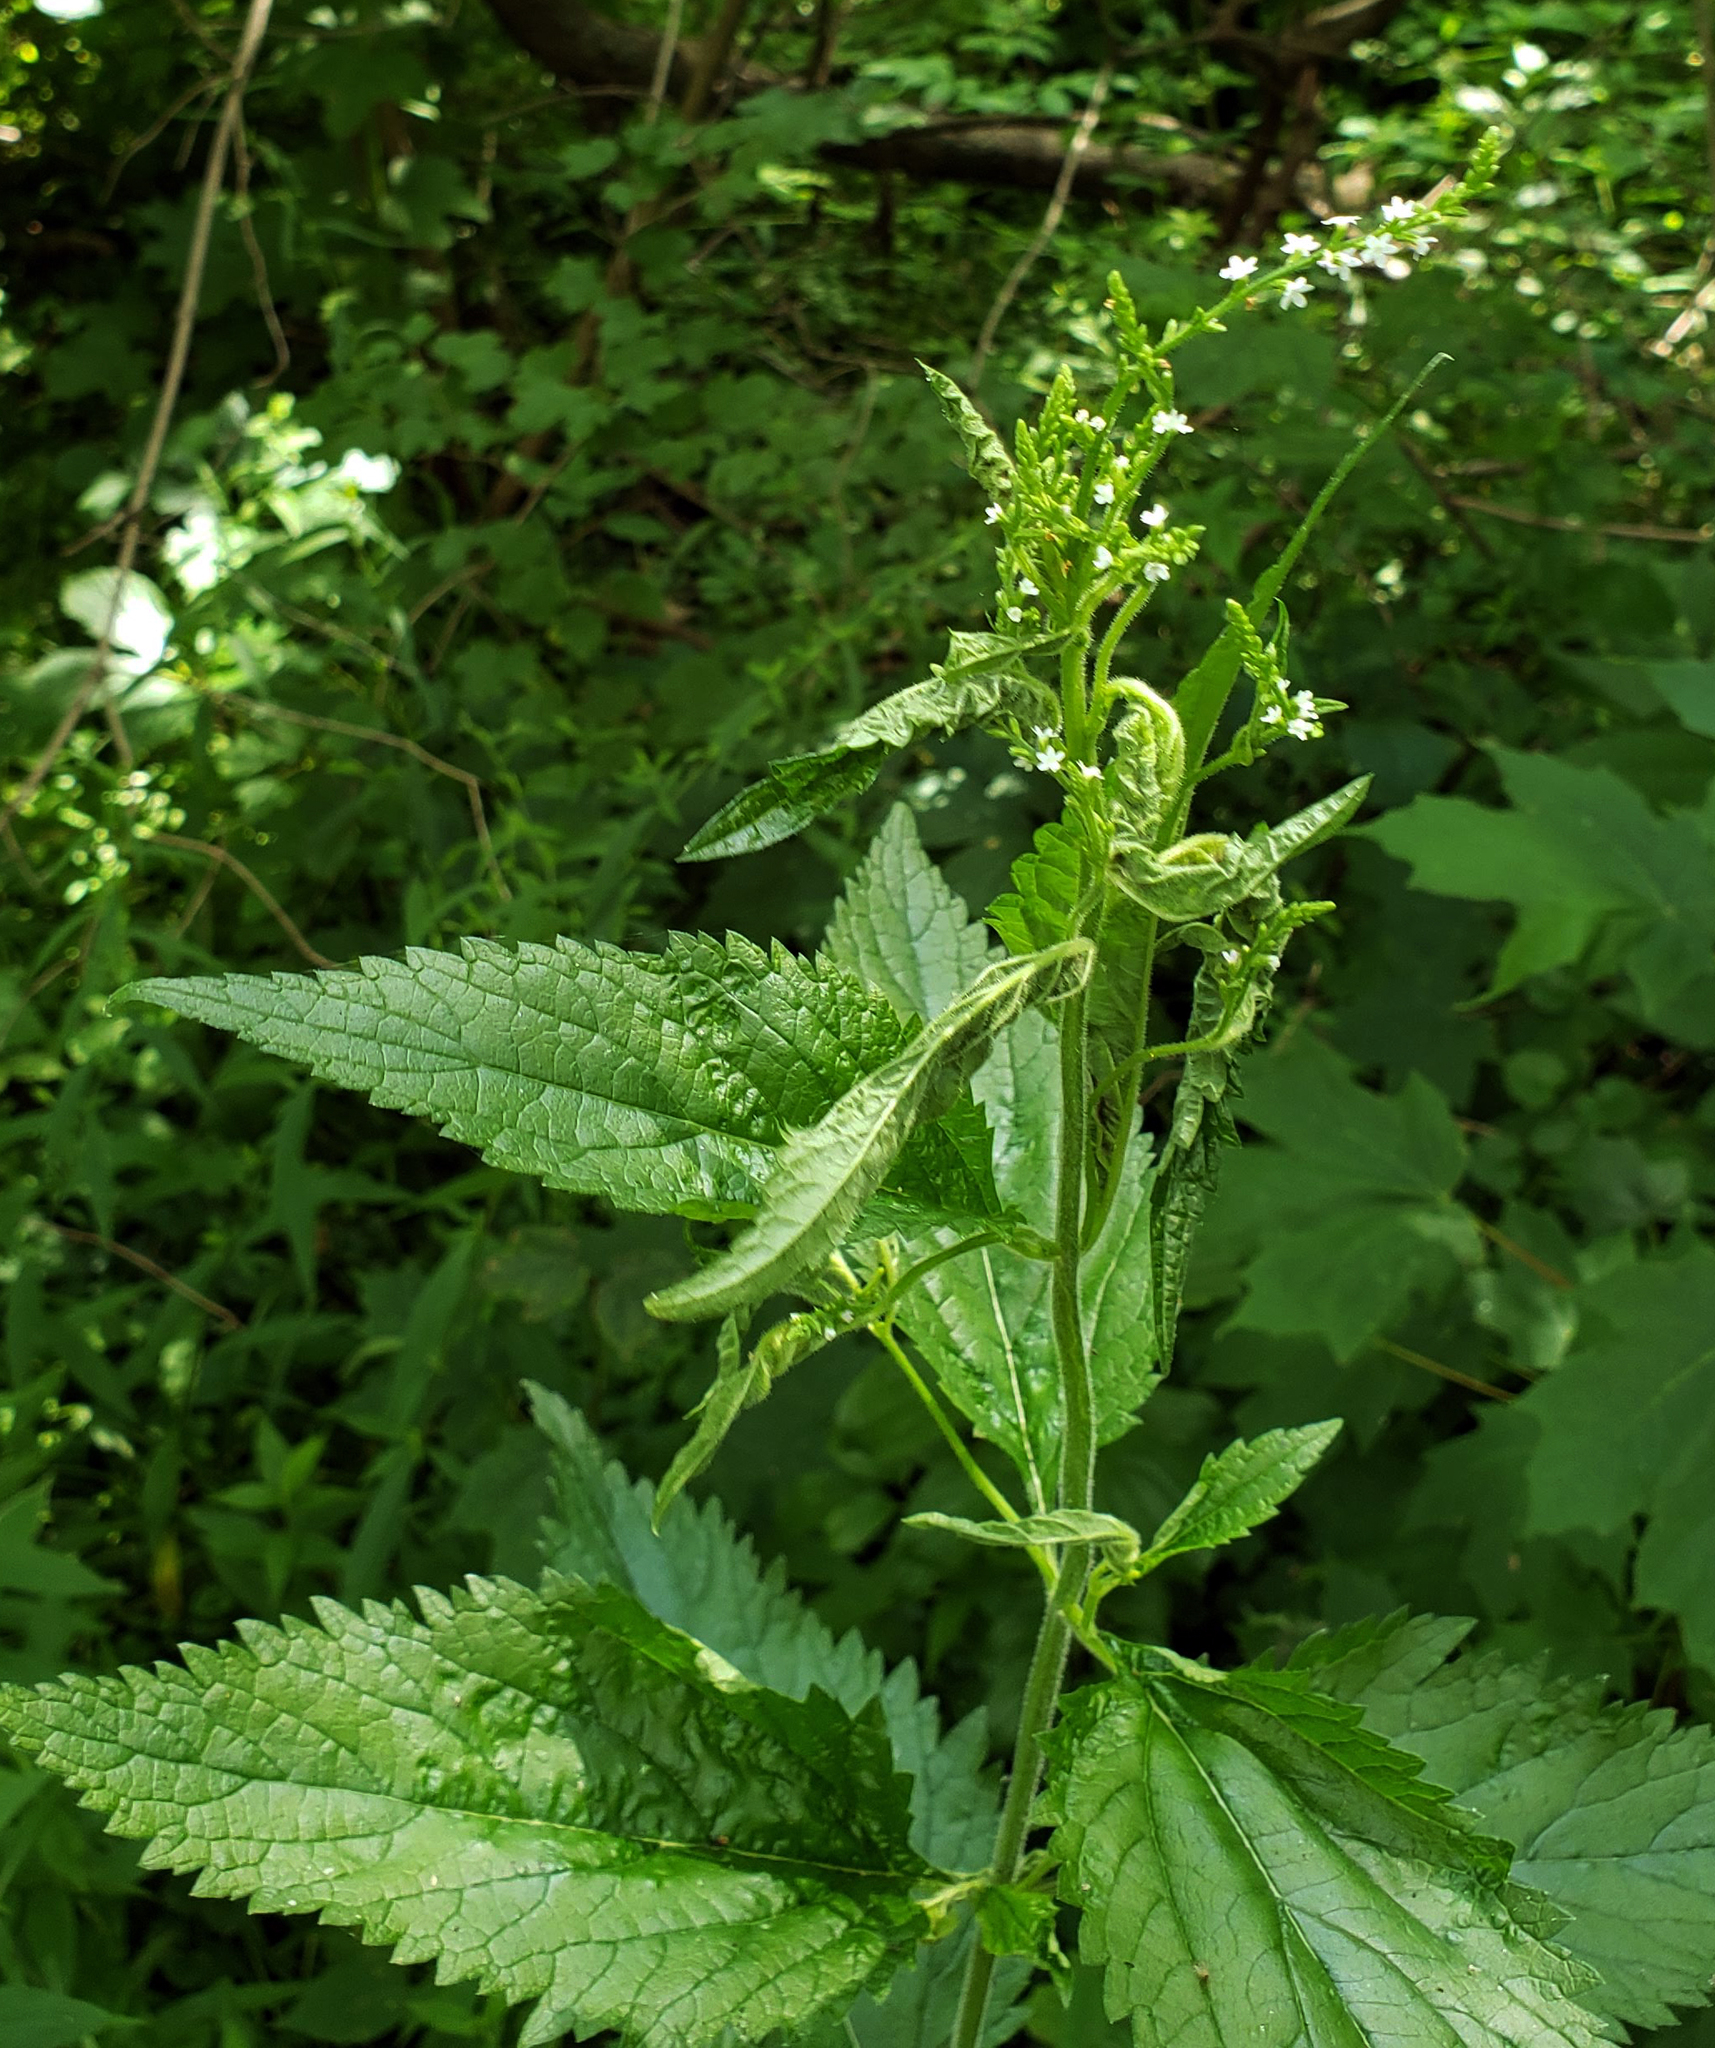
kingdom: Plantae
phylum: Tracheophyta
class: Magnoliopsida
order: Lamiales
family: Verbenaceae
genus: Verbena
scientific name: Verbena urticifolia
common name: Nettle-leaved vervain
